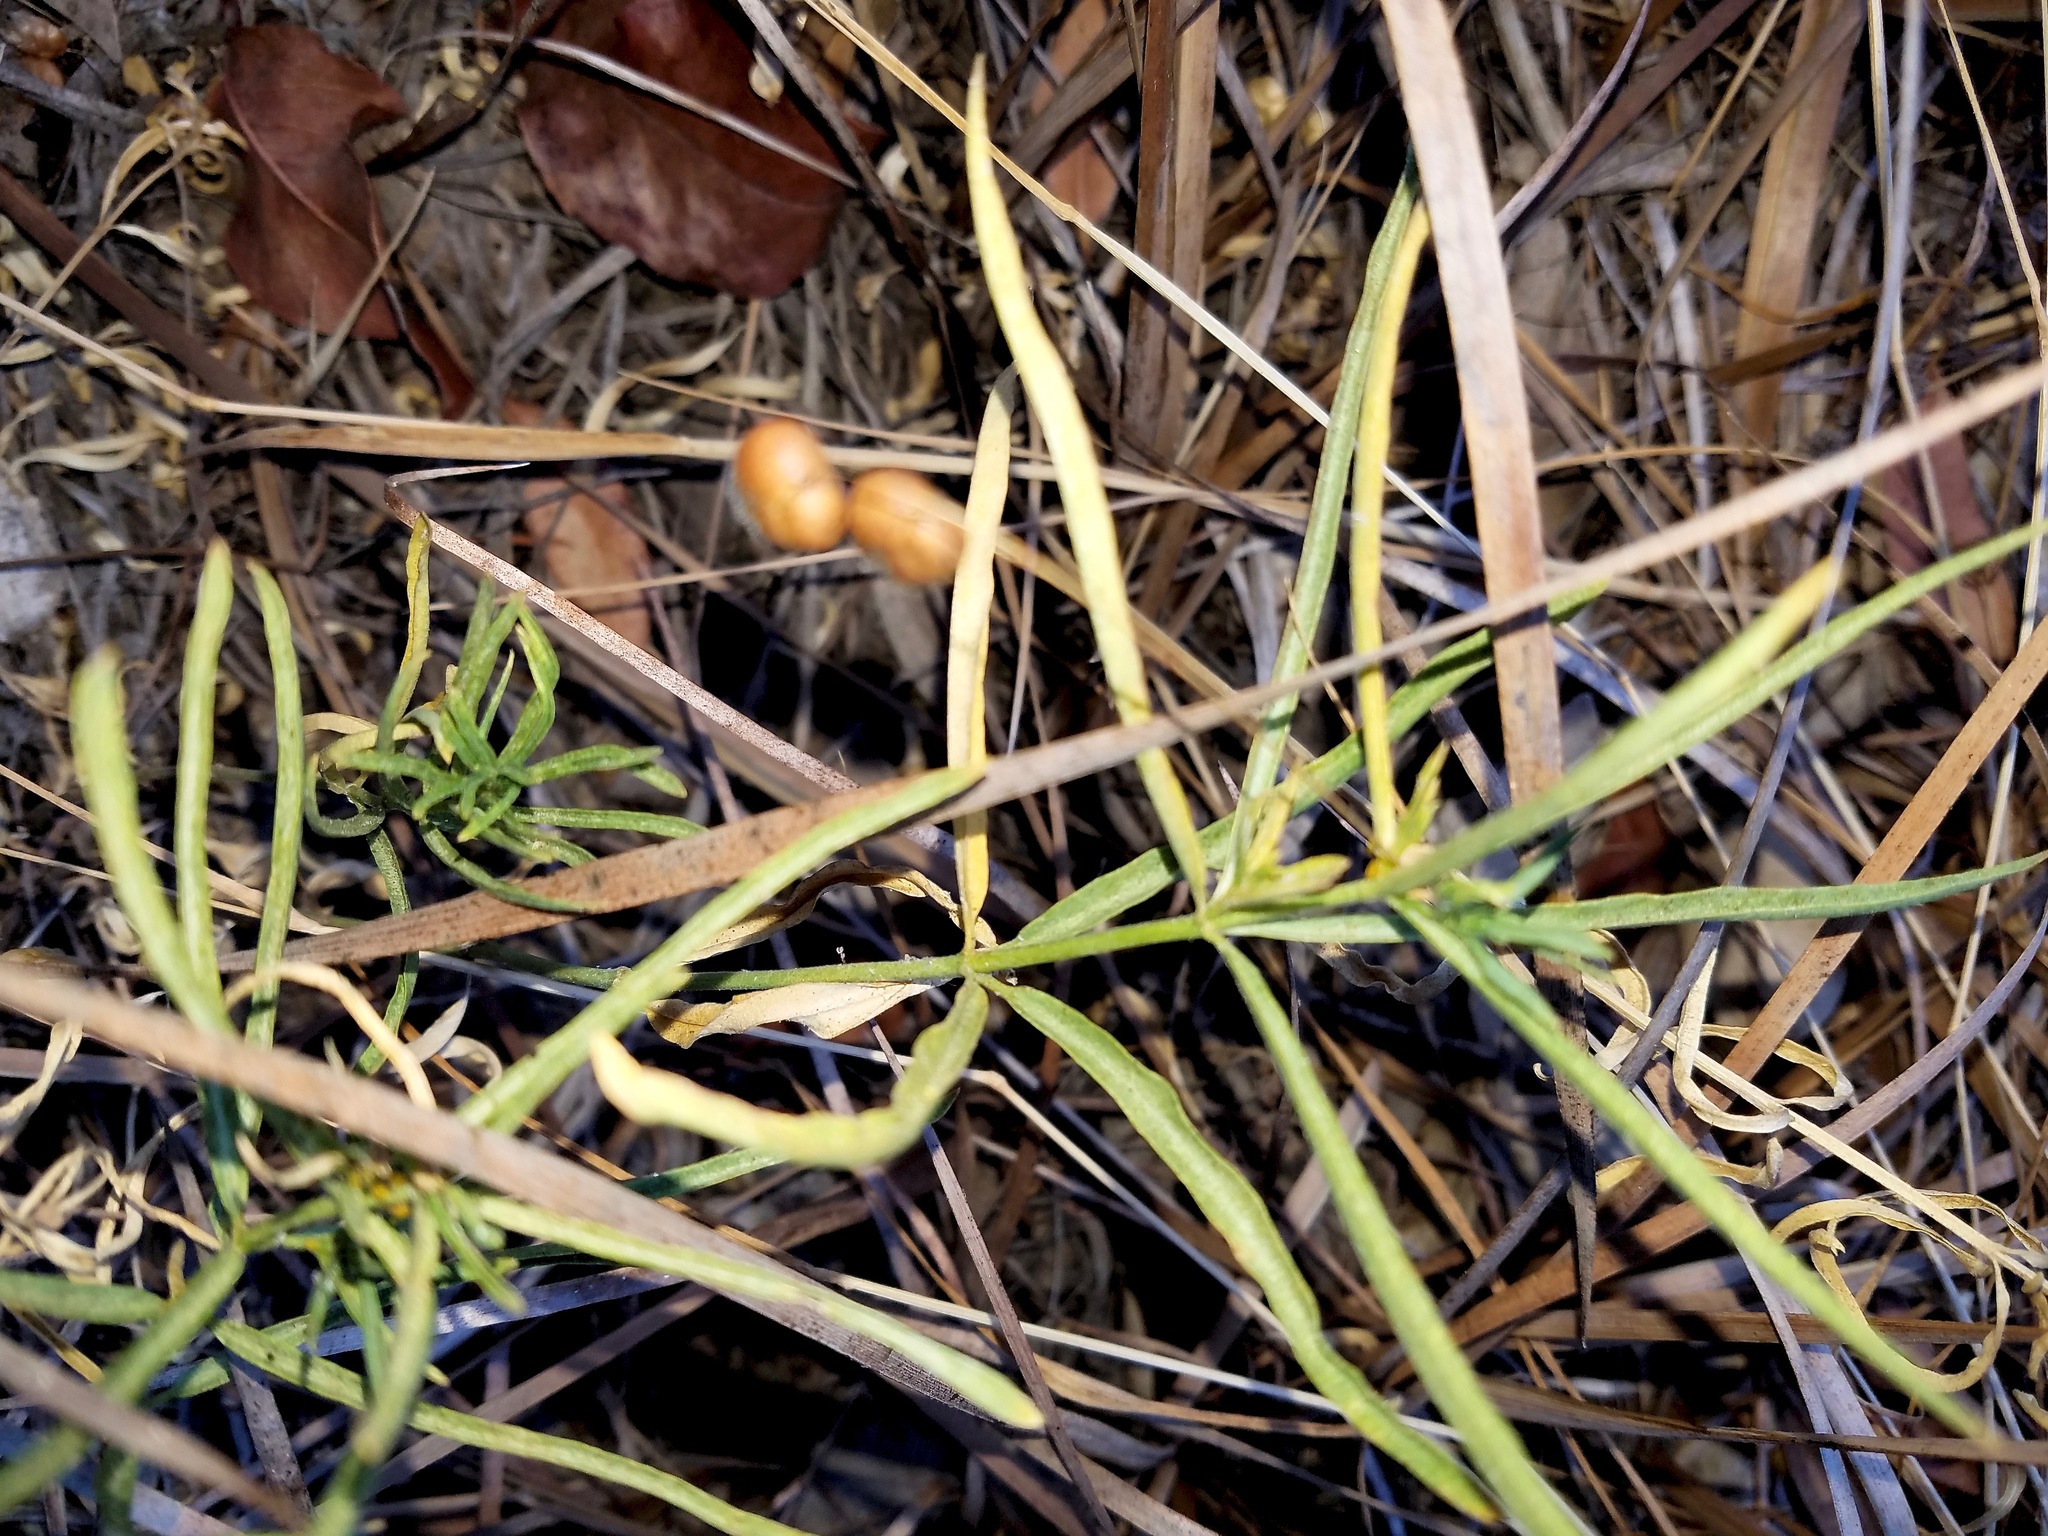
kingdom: Plantae
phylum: Tracheophyta
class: Magnoliopsida
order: Gentianales
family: Apocynaceae
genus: Asclepias
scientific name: Asclepias fascicularis
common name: Mexican milkweed
